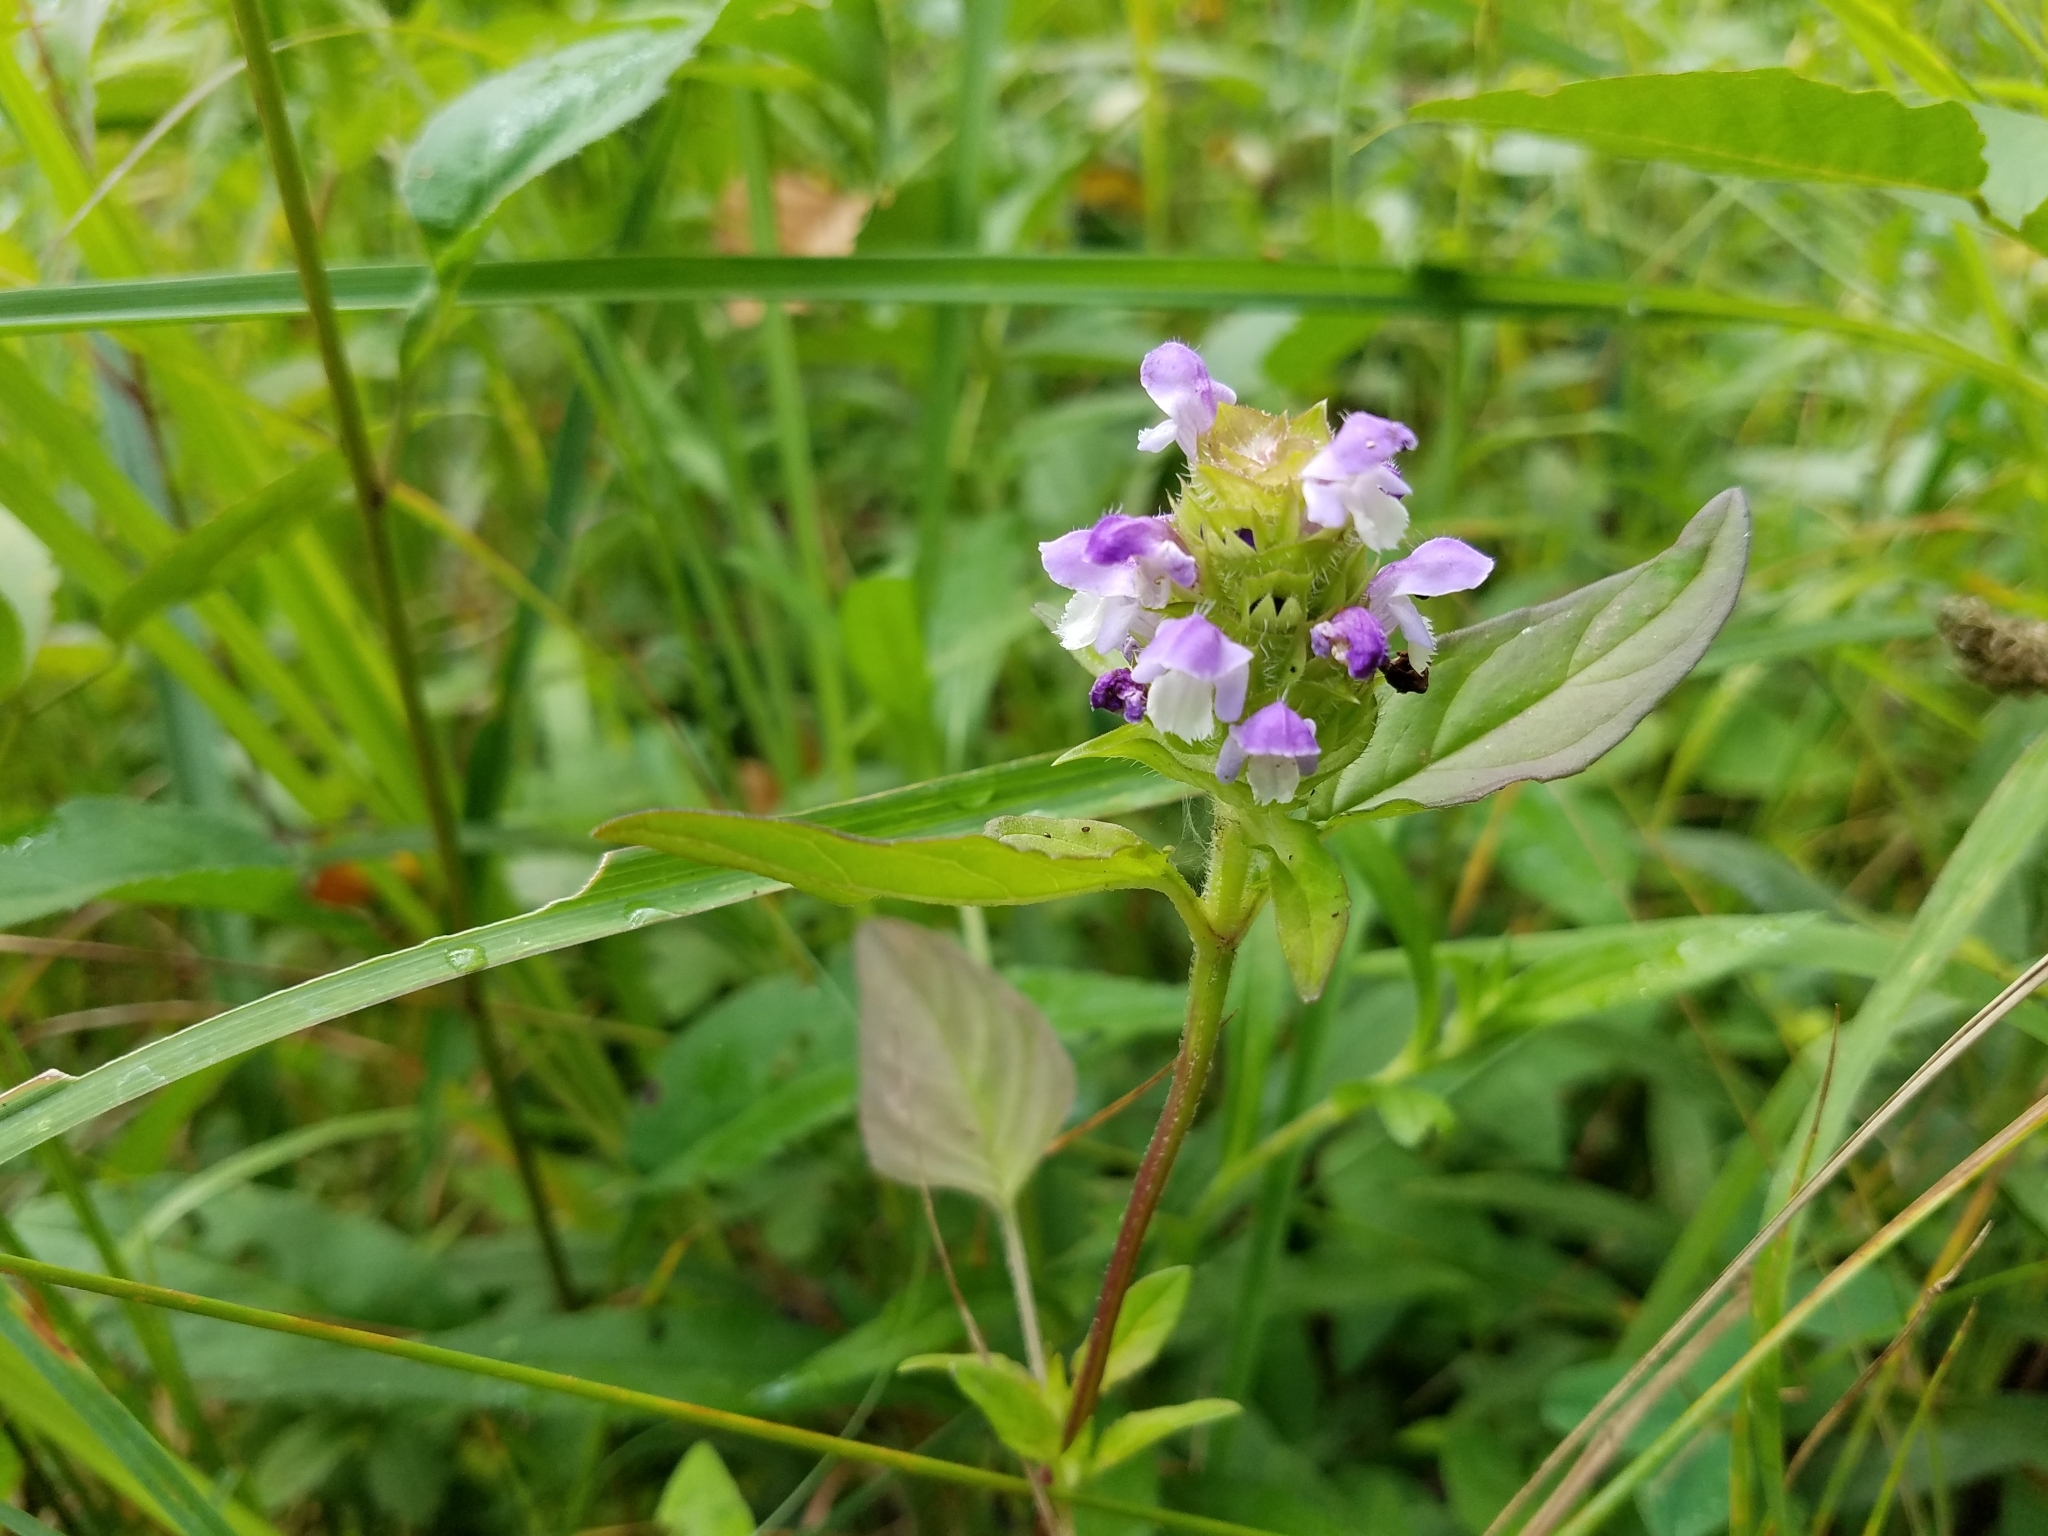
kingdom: Plantae
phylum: Tracheophyta
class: Magnoliopsida
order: Lamiales
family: Lamiaceae
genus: Prunella
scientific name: Prunella vulgaris
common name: Heal-all
